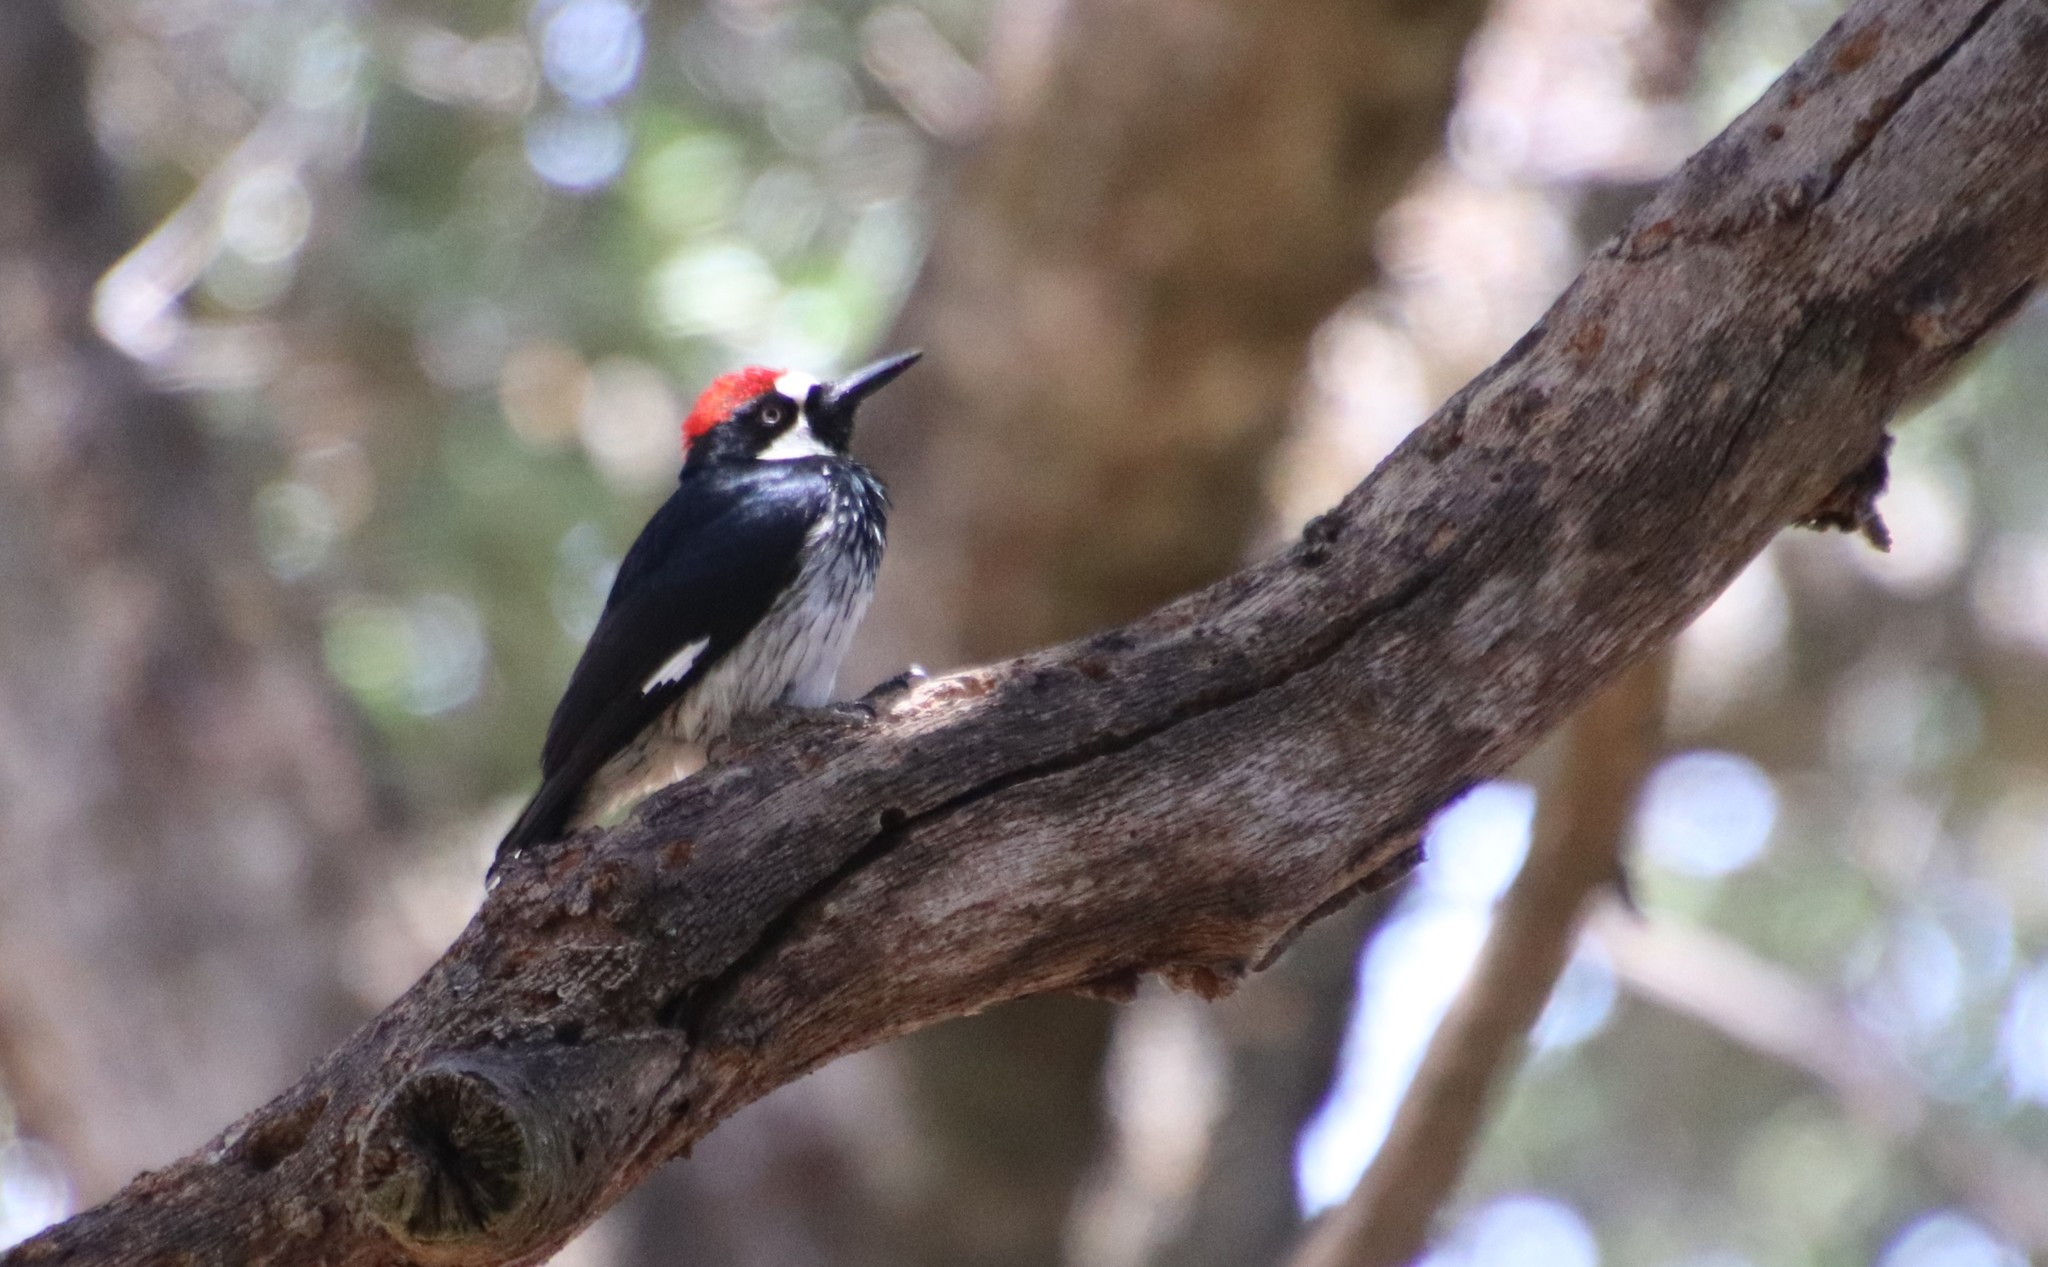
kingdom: Animalia
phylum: Chordata
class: Aves
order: Piciformes
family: Picidae
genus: Melanerpes
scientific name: Melanerpes formicivorus
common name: Acorn woodpecker
